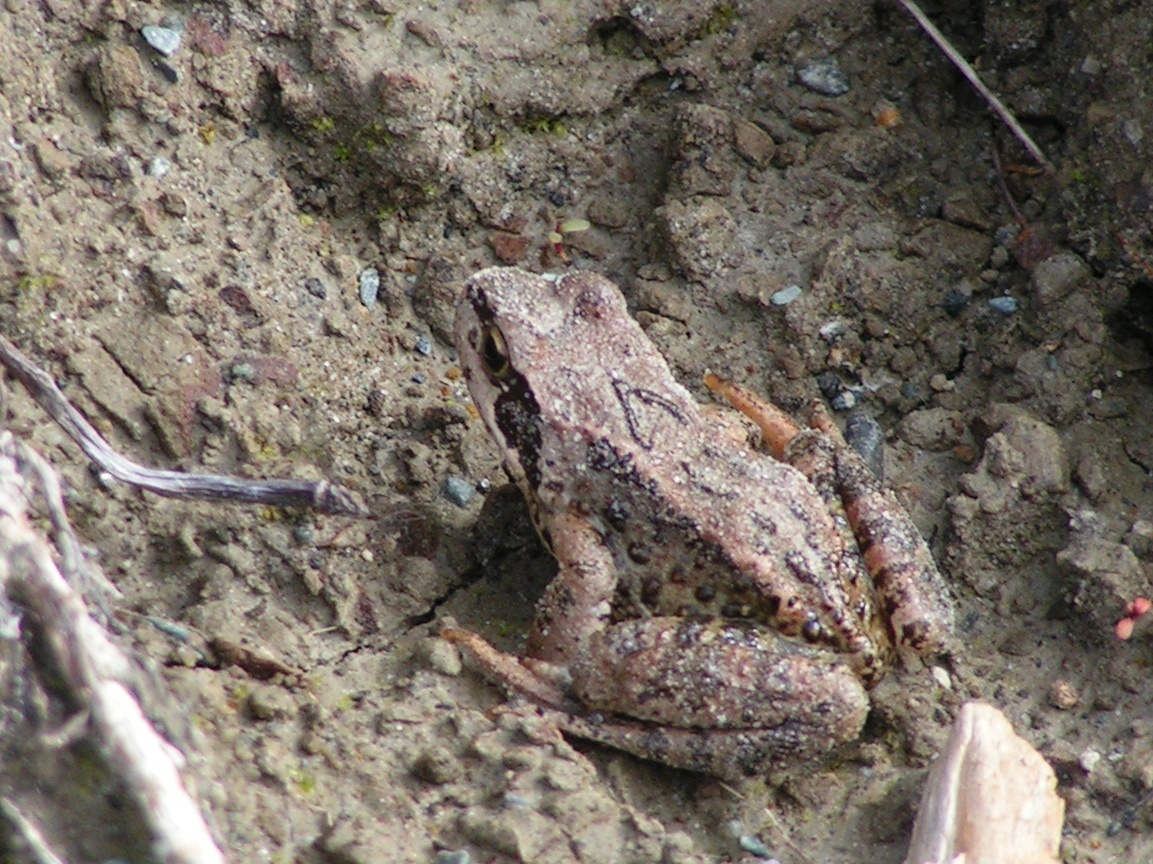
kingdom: Animalia
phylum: Chordata
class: Amphibia
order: Anura
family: Ranidae
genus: Rana
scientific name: Rana temporaria
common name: Common frog
